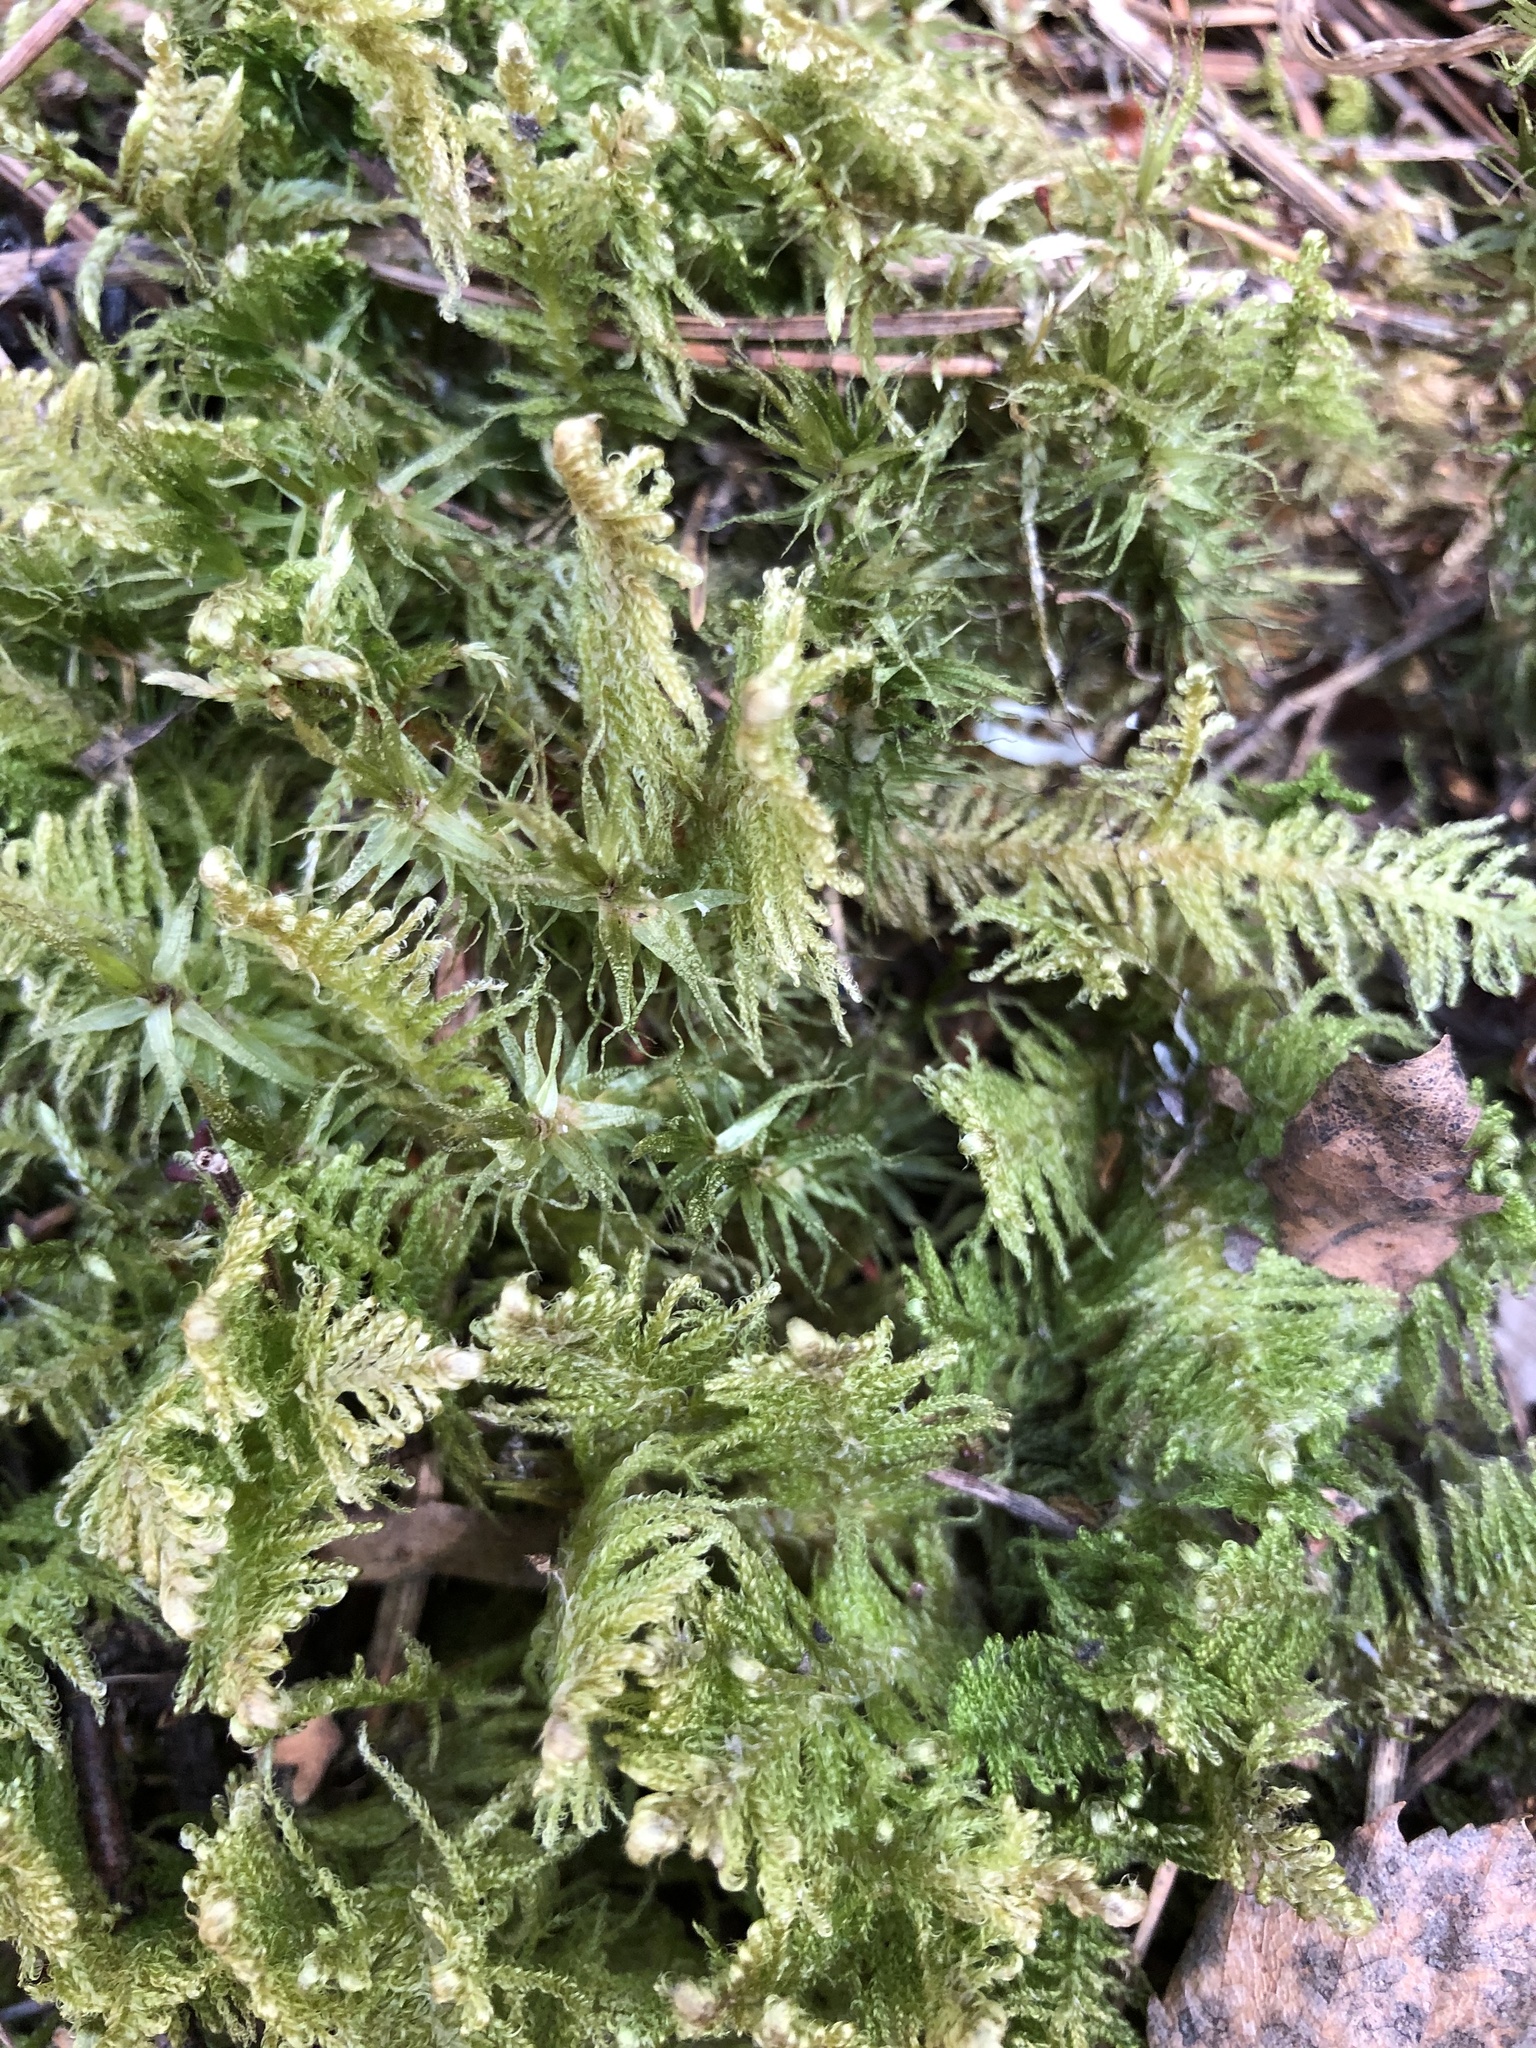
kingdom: Plantae
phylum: Bryophyta
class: Bryopsida
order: Hypnales
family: Pylaisiaceae
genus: Ptilium
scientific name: Ptilium crista-castrensis
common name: Knight's plume moss
